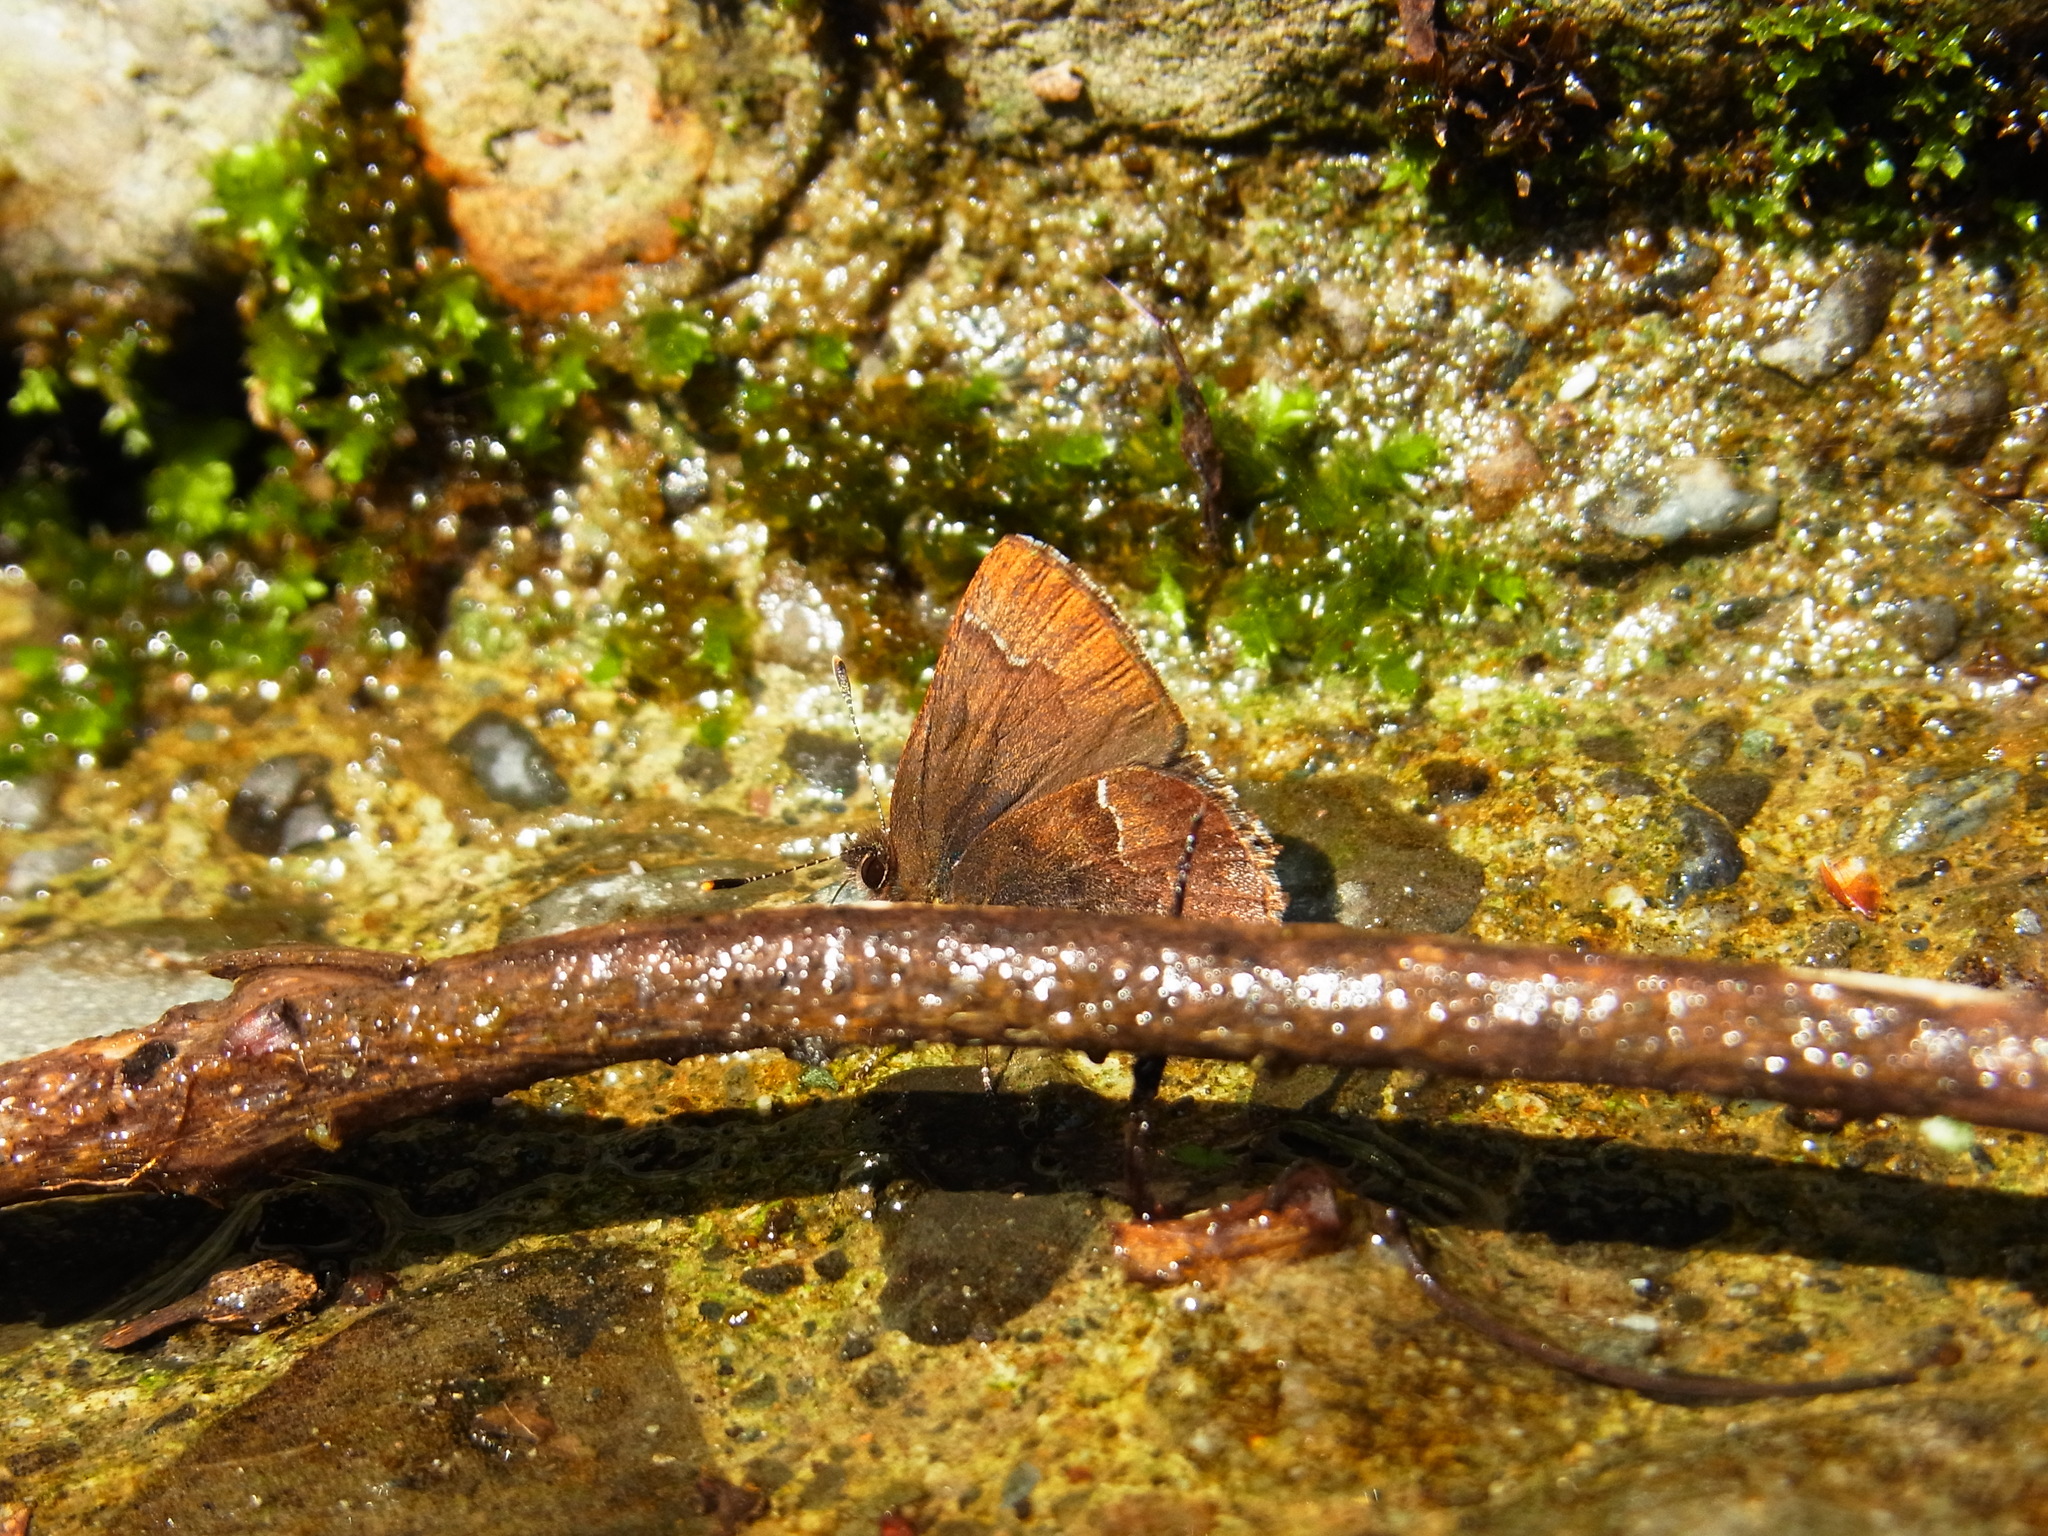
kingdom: Animalia
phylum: Arthropoda
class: Insecta
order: Lepidoptera
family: Lycaenidae
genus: Ginzia
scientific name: Ginzia frivaldsky
